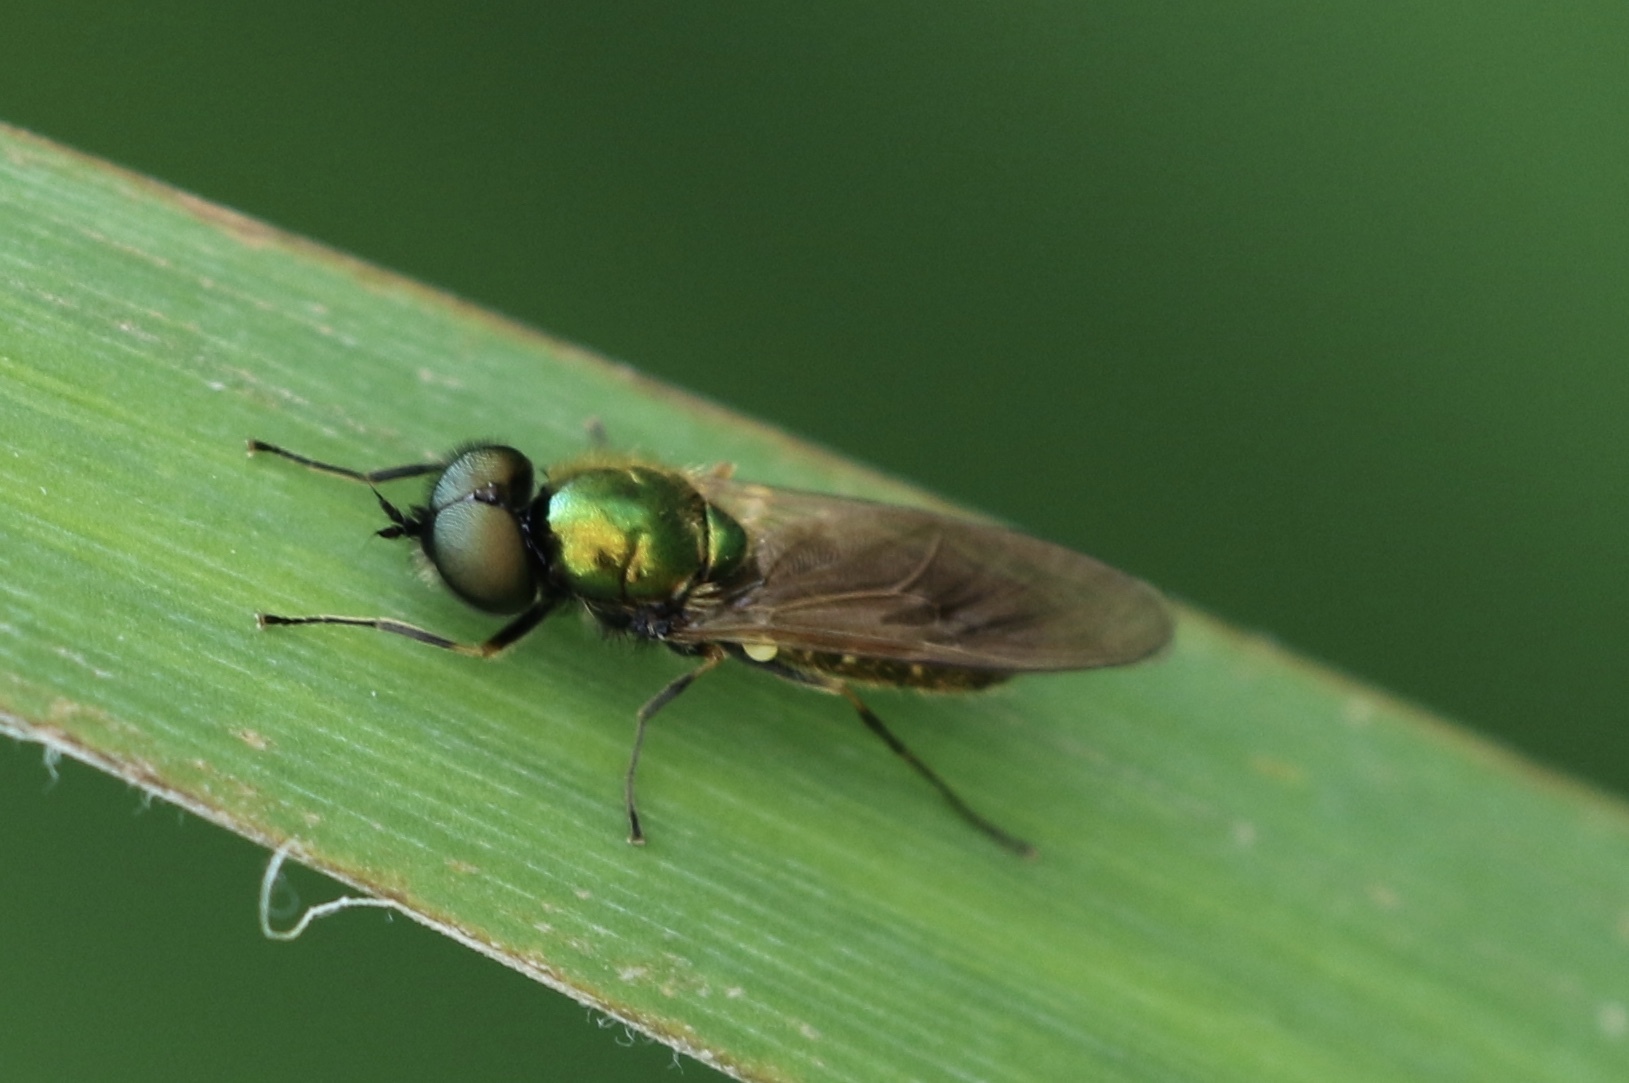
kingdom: Animalia
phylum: Arthropoda
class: Insecta
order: Diptera
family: Stratiomyidae
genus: Chloromyia
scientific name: Chloromyia formosa
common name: Soldier fly
